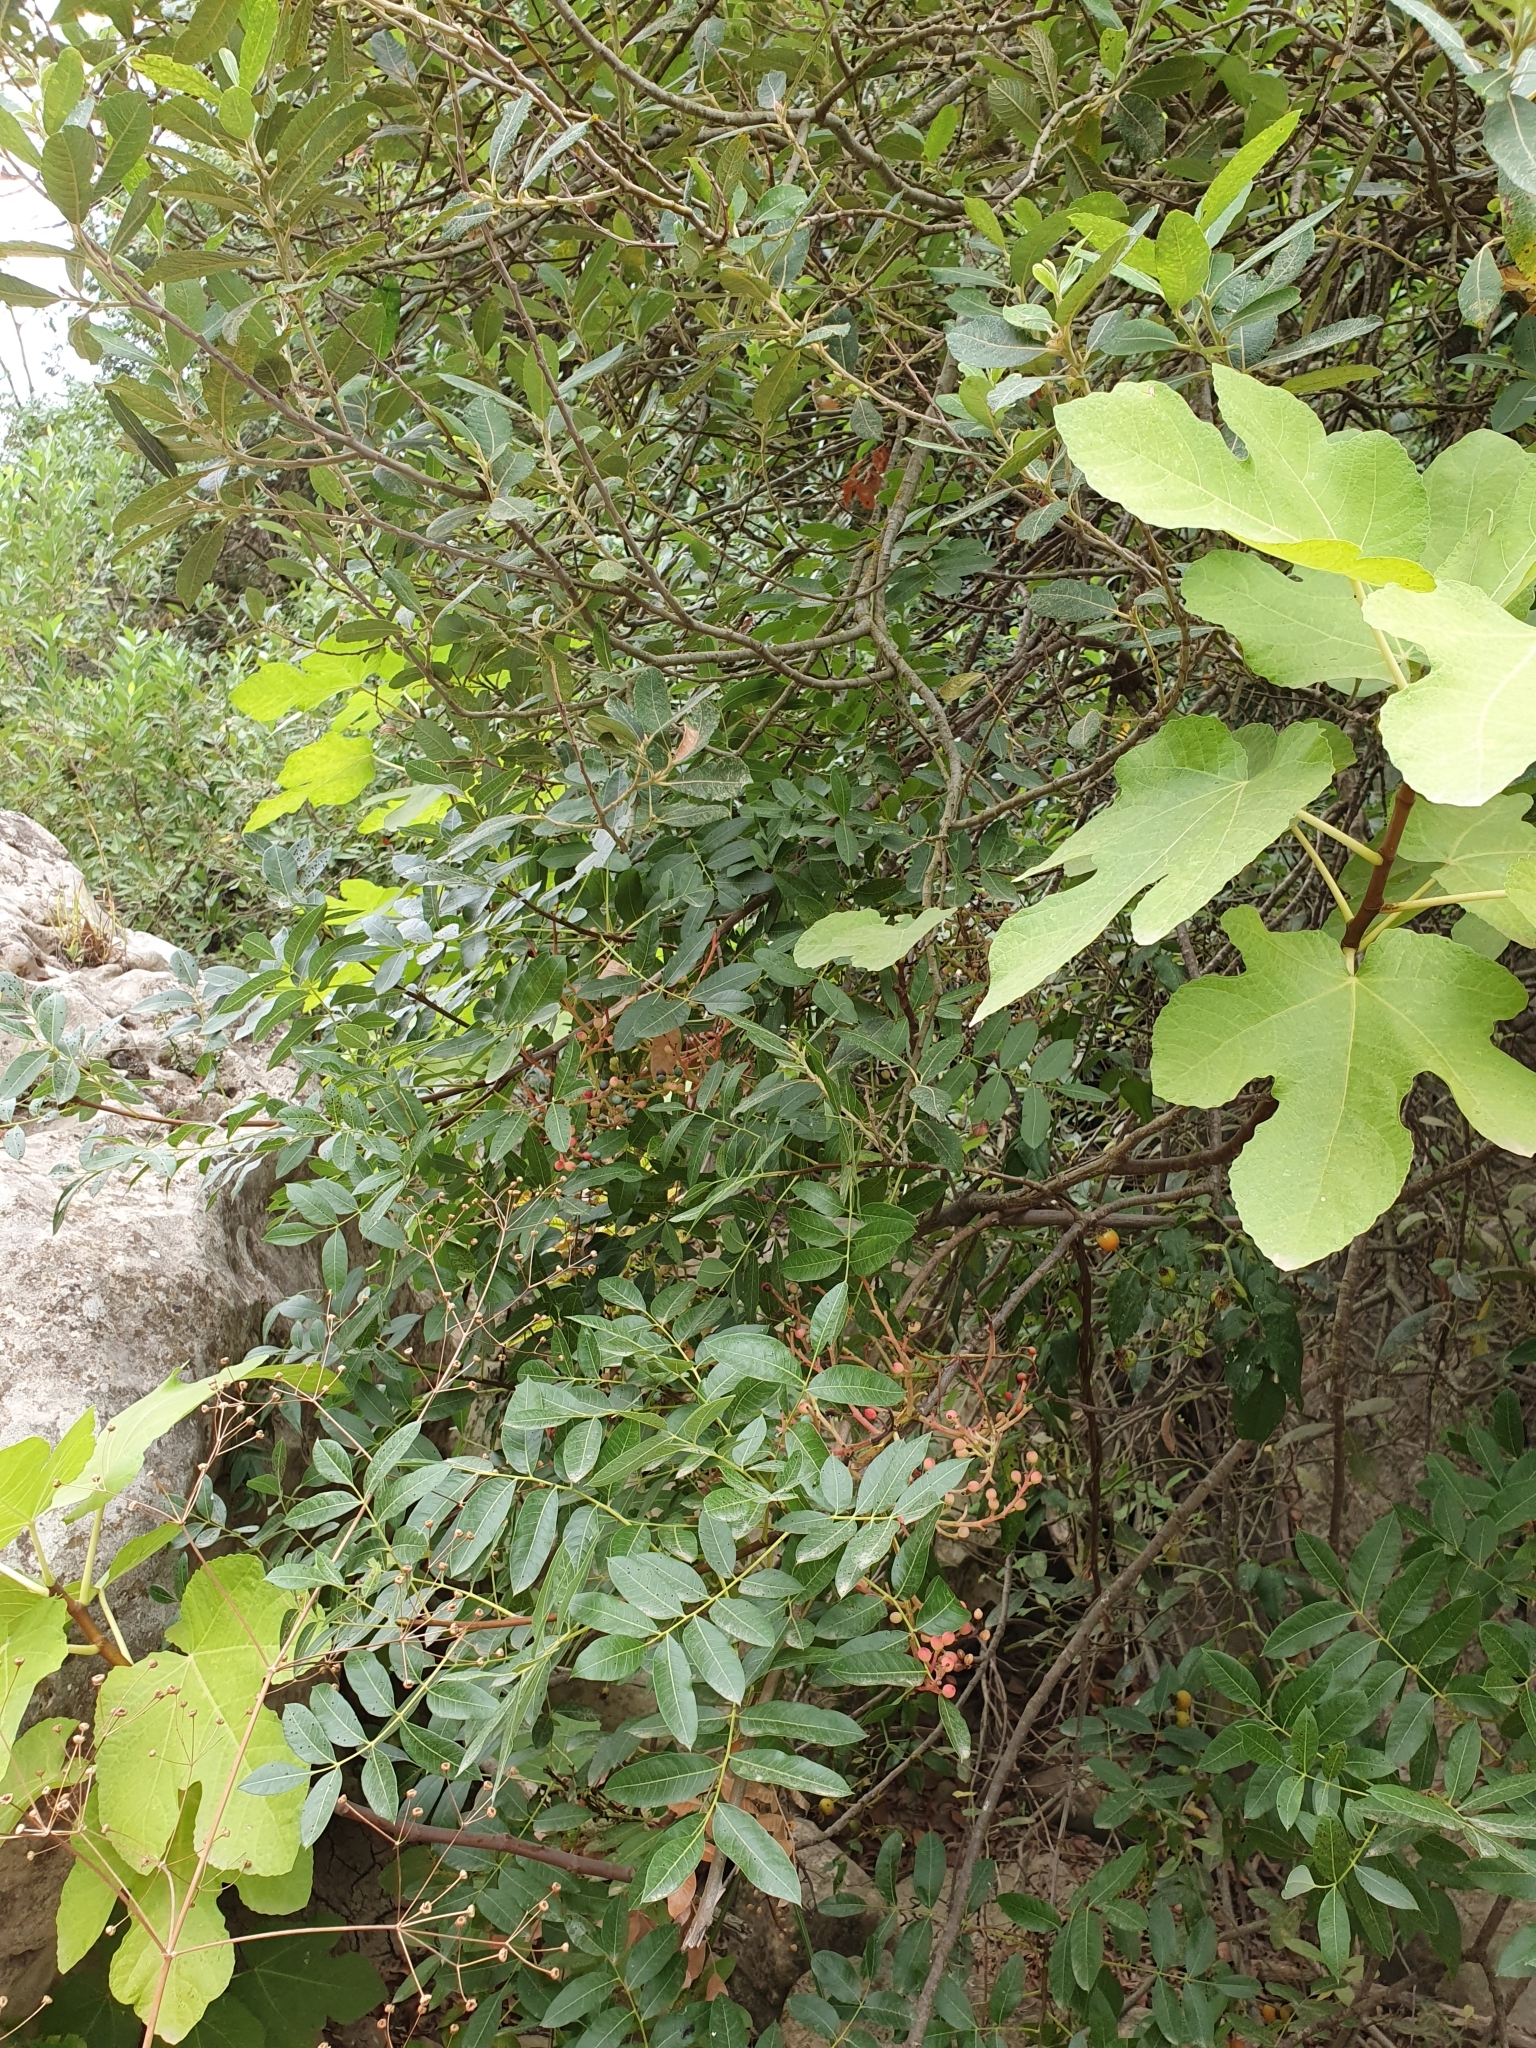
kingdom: Plantae
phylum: Tracheophyta
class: Magnoliopsida
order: Sapindales
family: Anacardiaceae
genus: Pistacia
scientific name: Pistacia terebinthus
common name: Terebinth
